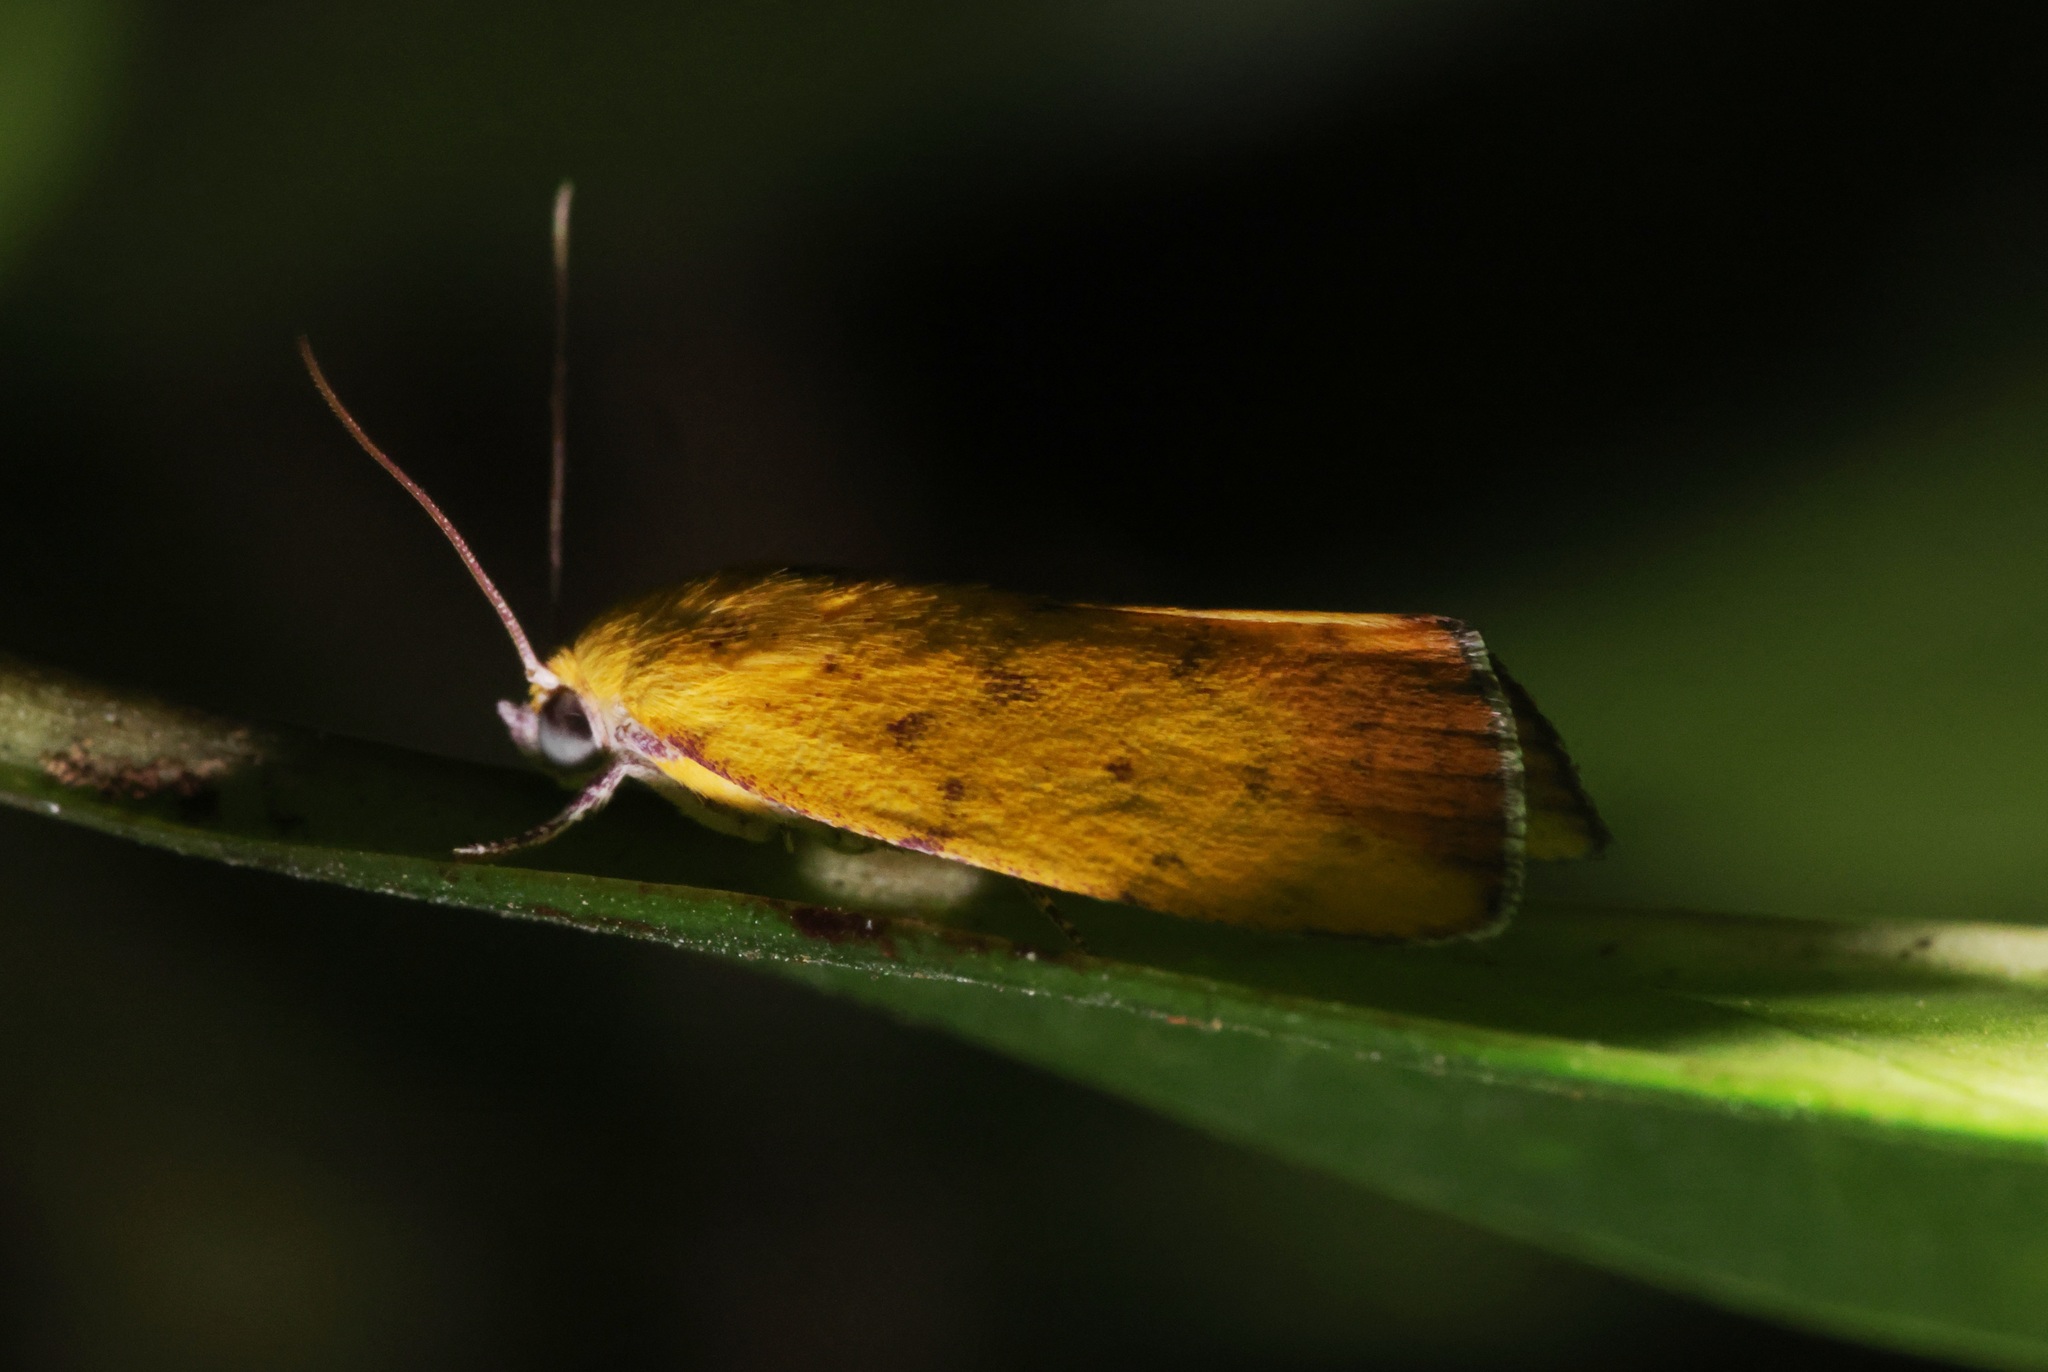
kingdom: Animalia
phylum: Arthropoda
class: Insecta
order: Lepidoptera
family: Nolidae
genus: Earias
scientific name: Earias luteolaria
